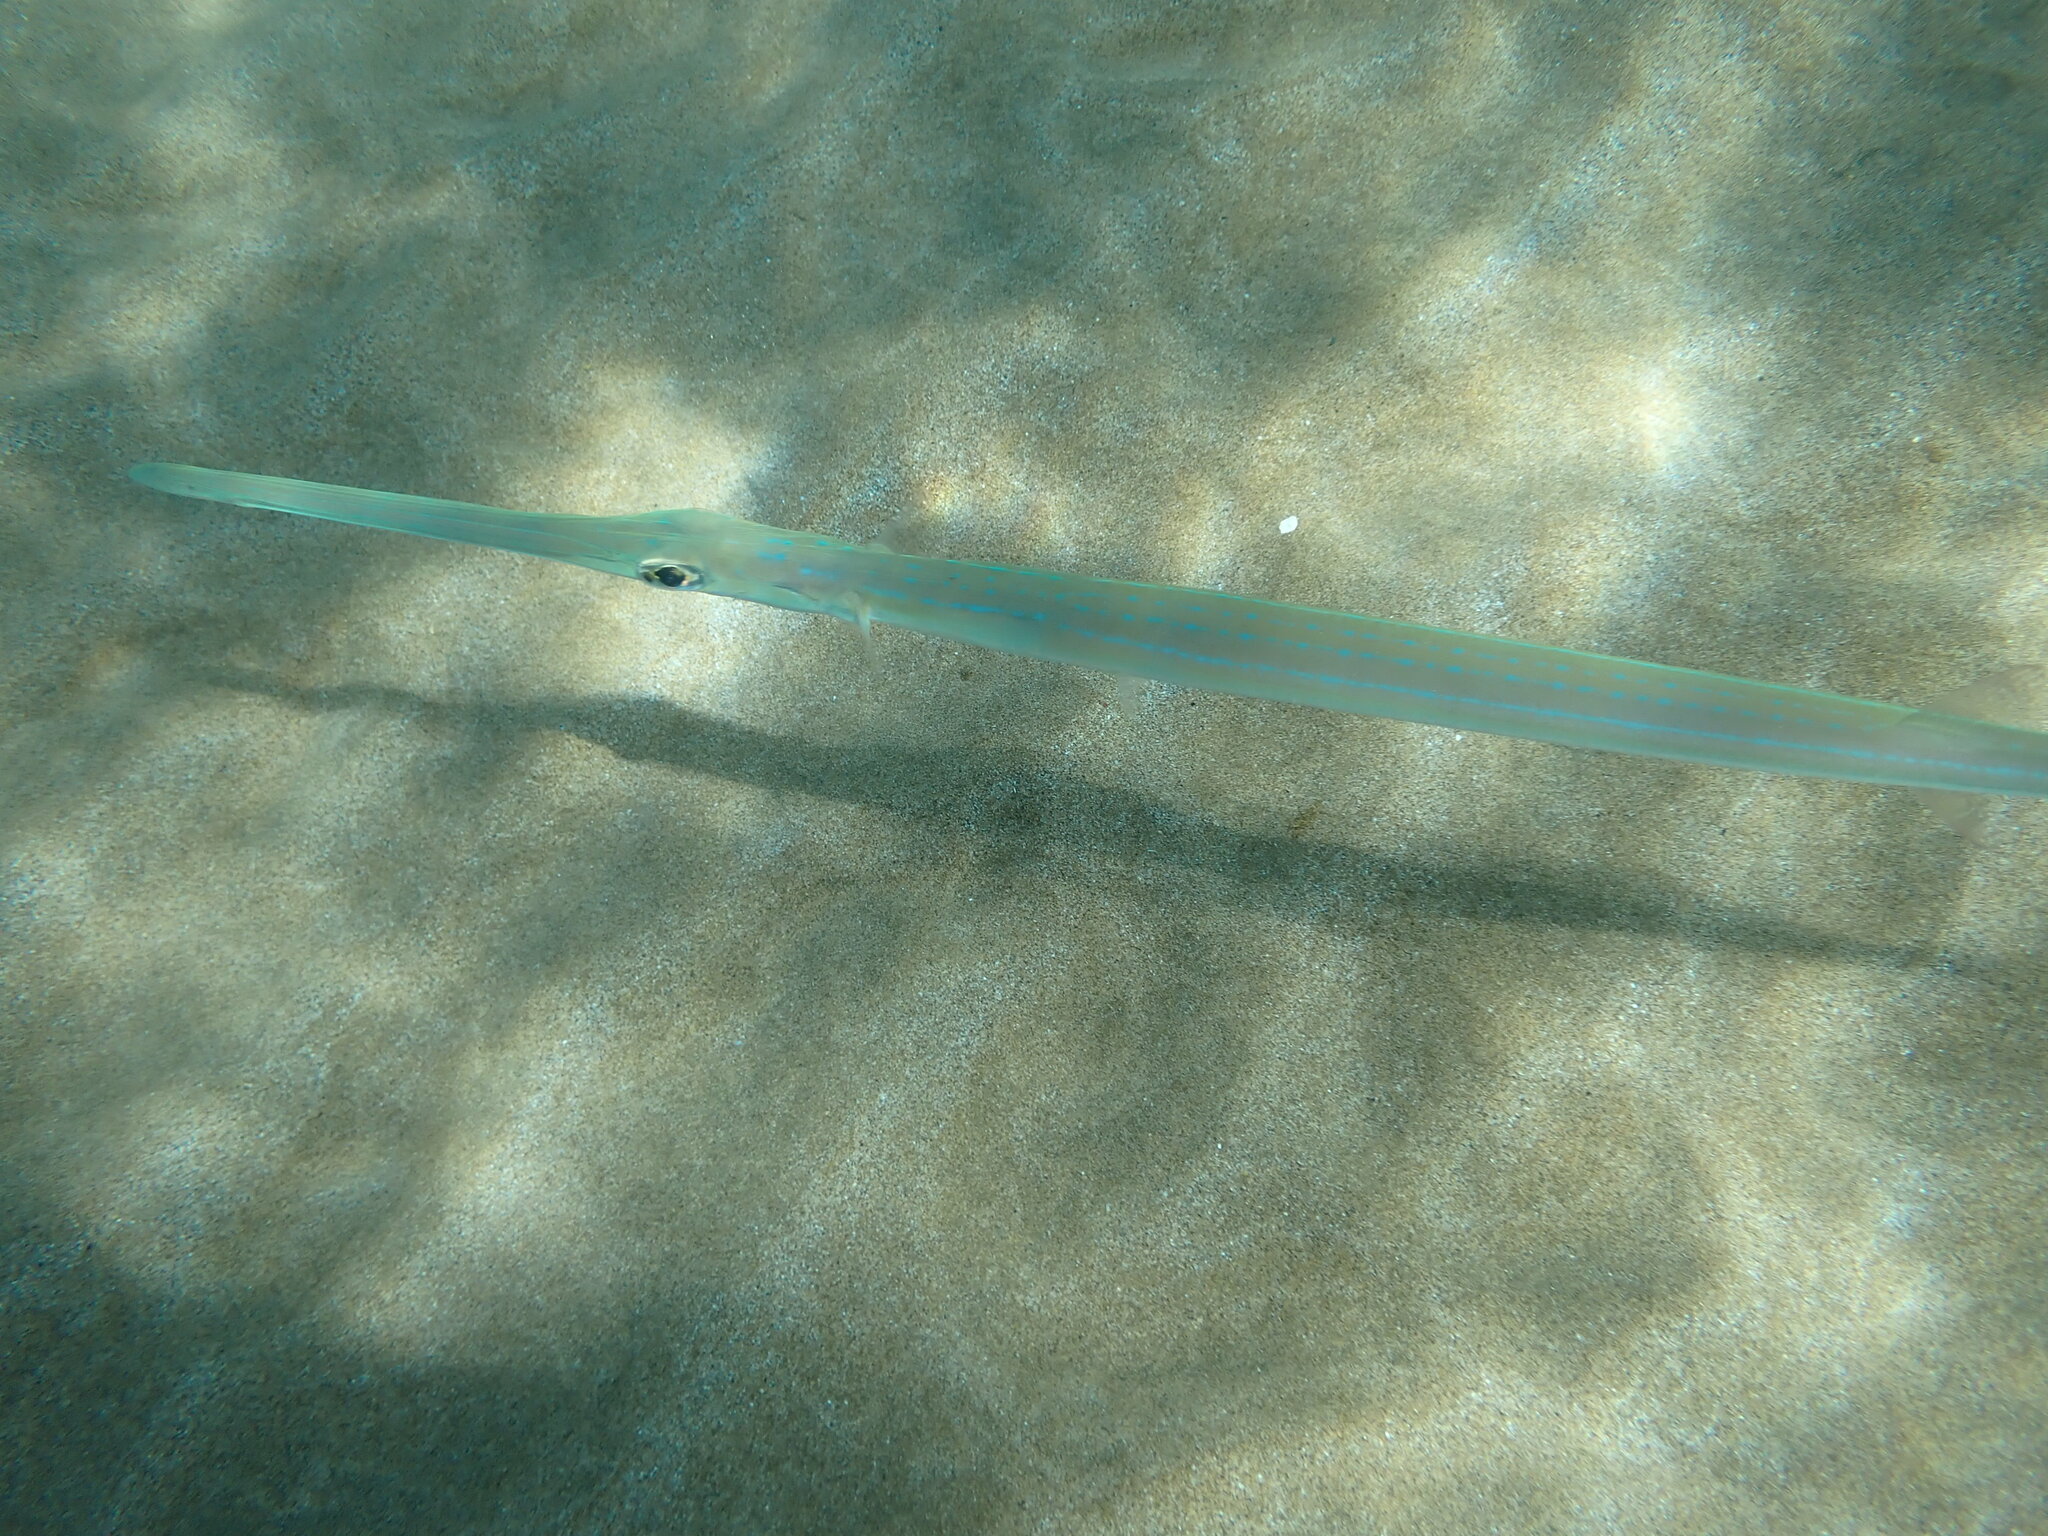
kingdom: Animalia
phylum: Chordata
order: Syngnathiformes
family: Fistulariidae
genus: Fistularia
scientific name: Fistularia commersonii
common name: Bluespotted cornetfish
